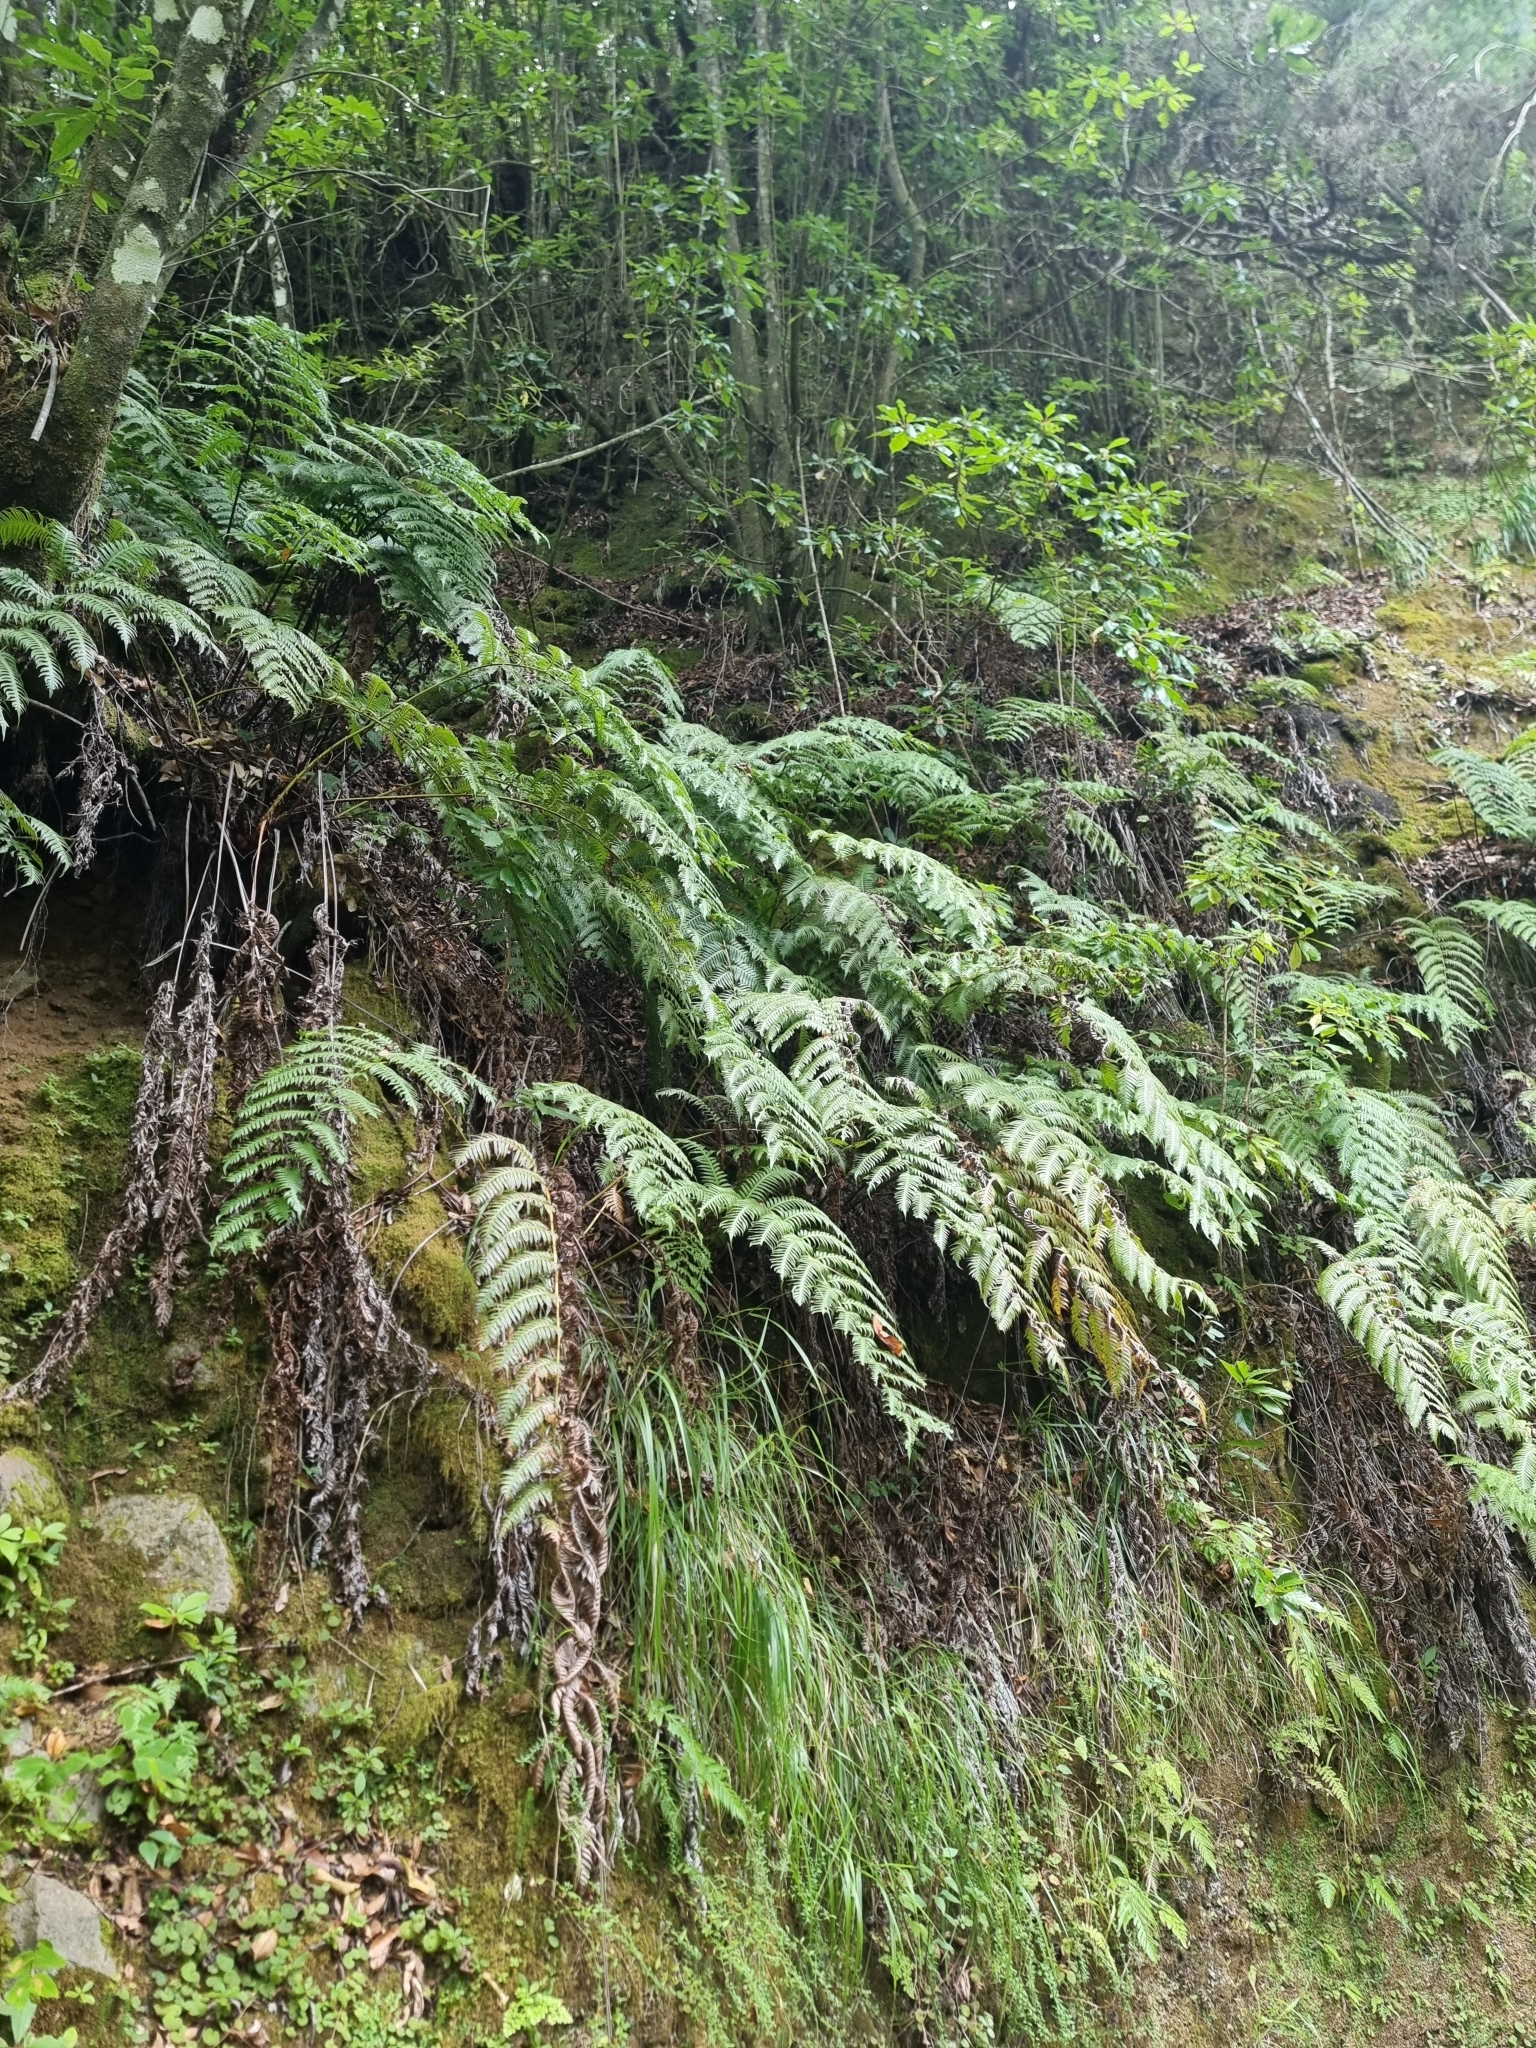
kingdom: Plantae
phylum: Tracheophyta
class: Polypodiopsida
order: Polypodiales
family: Blechnaceae
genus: Woodwardia
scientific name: Woodwardia radicans
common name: Rooting chainfern
